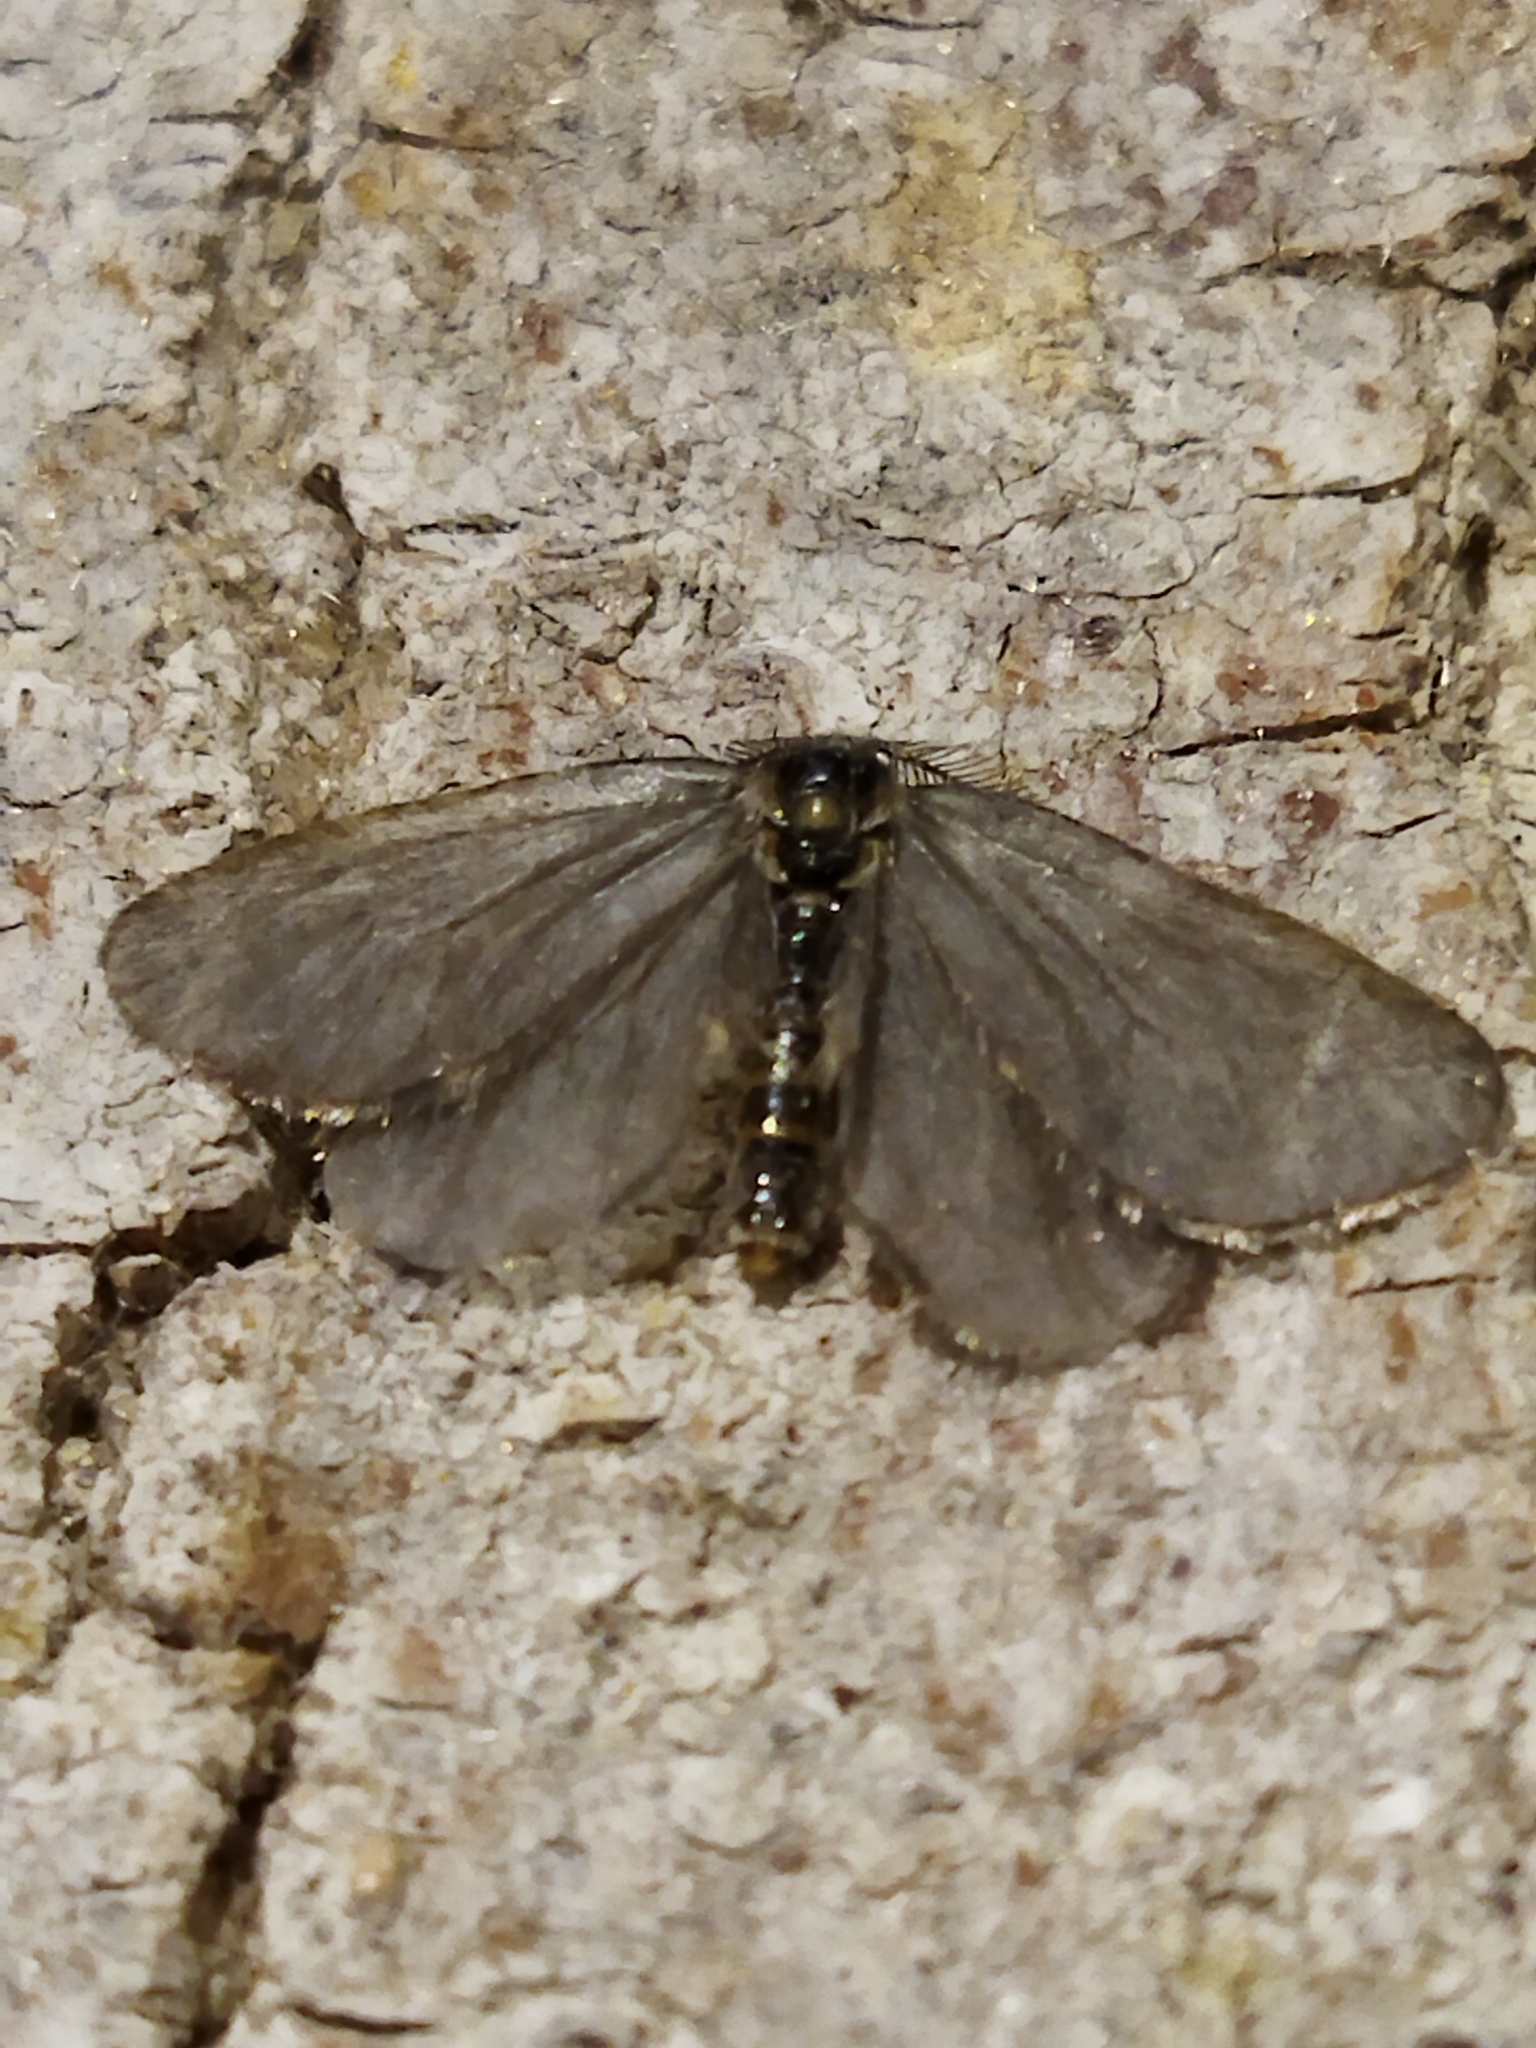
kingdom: Animalia
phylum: Arthropoda
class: Insecta
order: Lepidoptera
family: Psychidae
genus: Rebelia
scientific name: Rebelia perlucidella
